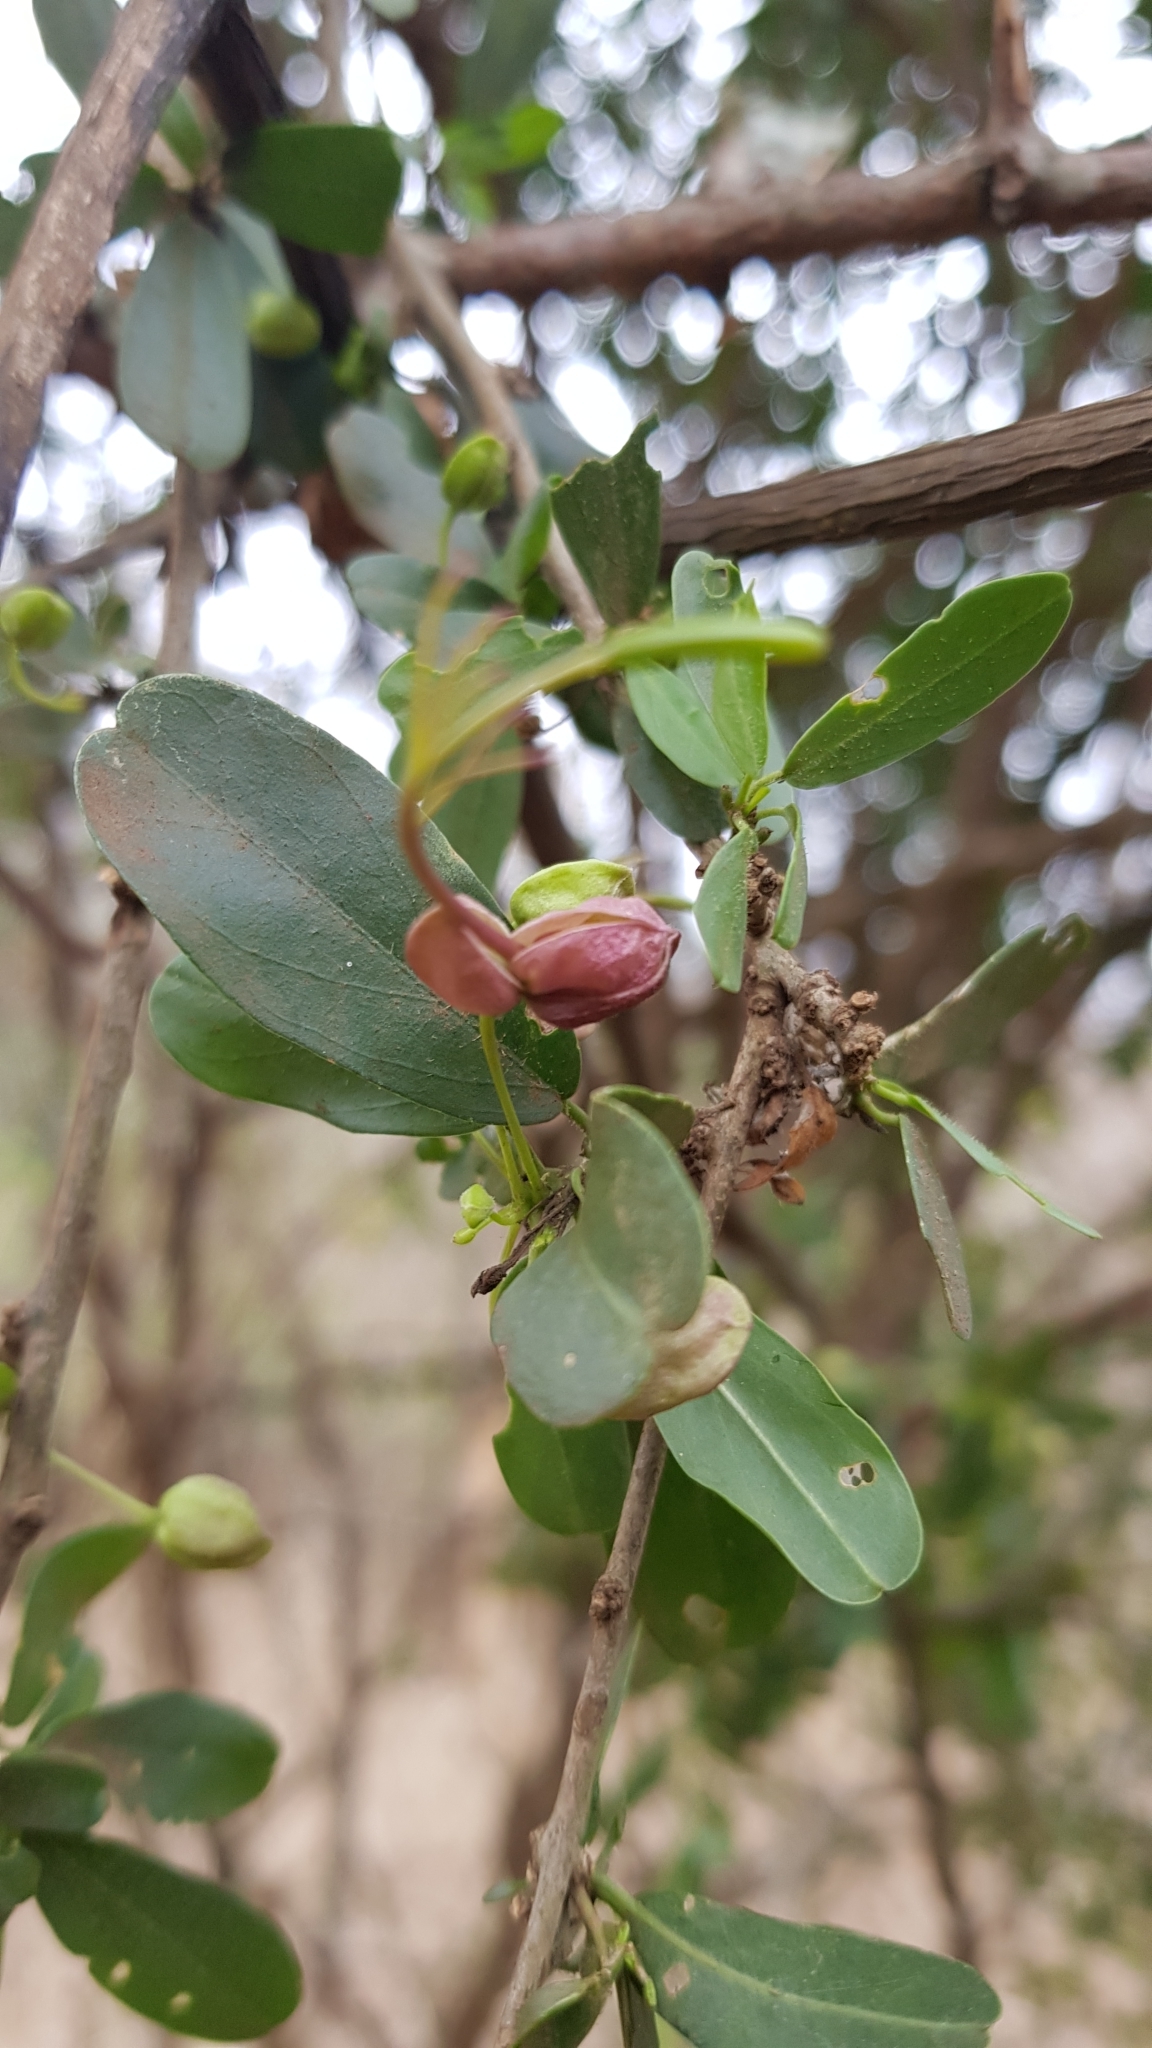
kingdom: Plantae
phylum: Tracheophyta
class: Magnoliopsida
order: Brassicales
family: Capparaceae
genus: Cadaba
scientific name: Cadaba natalensis
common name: Natal worm bush
